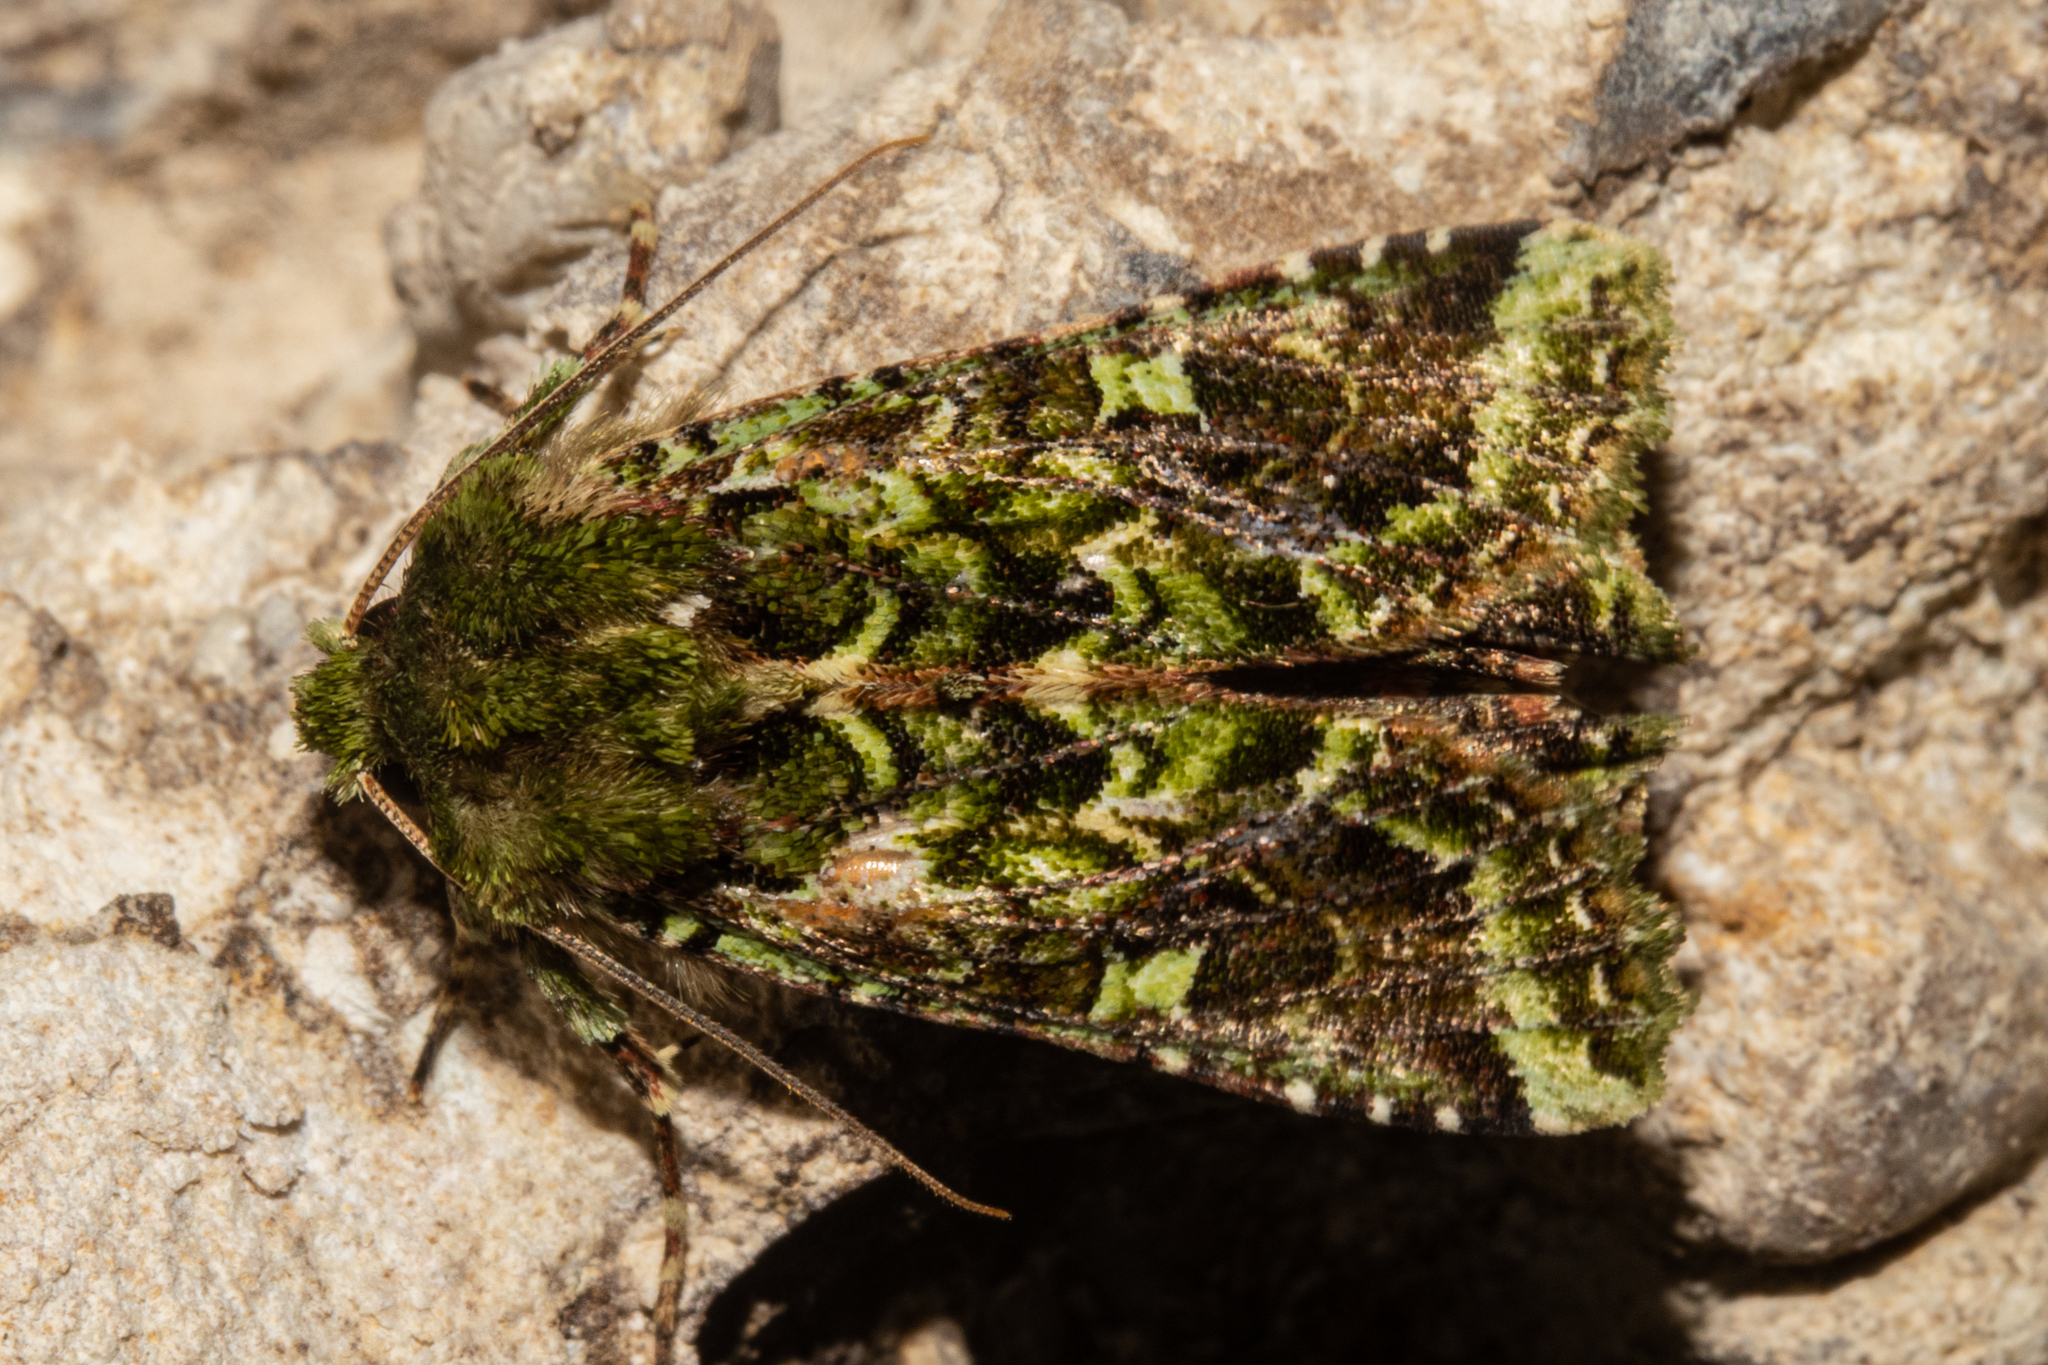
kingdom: Animalia
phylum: Arthropoda
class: Insecta
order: Lepidoptera
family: Noctuidae
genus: Feredayia
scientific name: Feredayia grammosa
